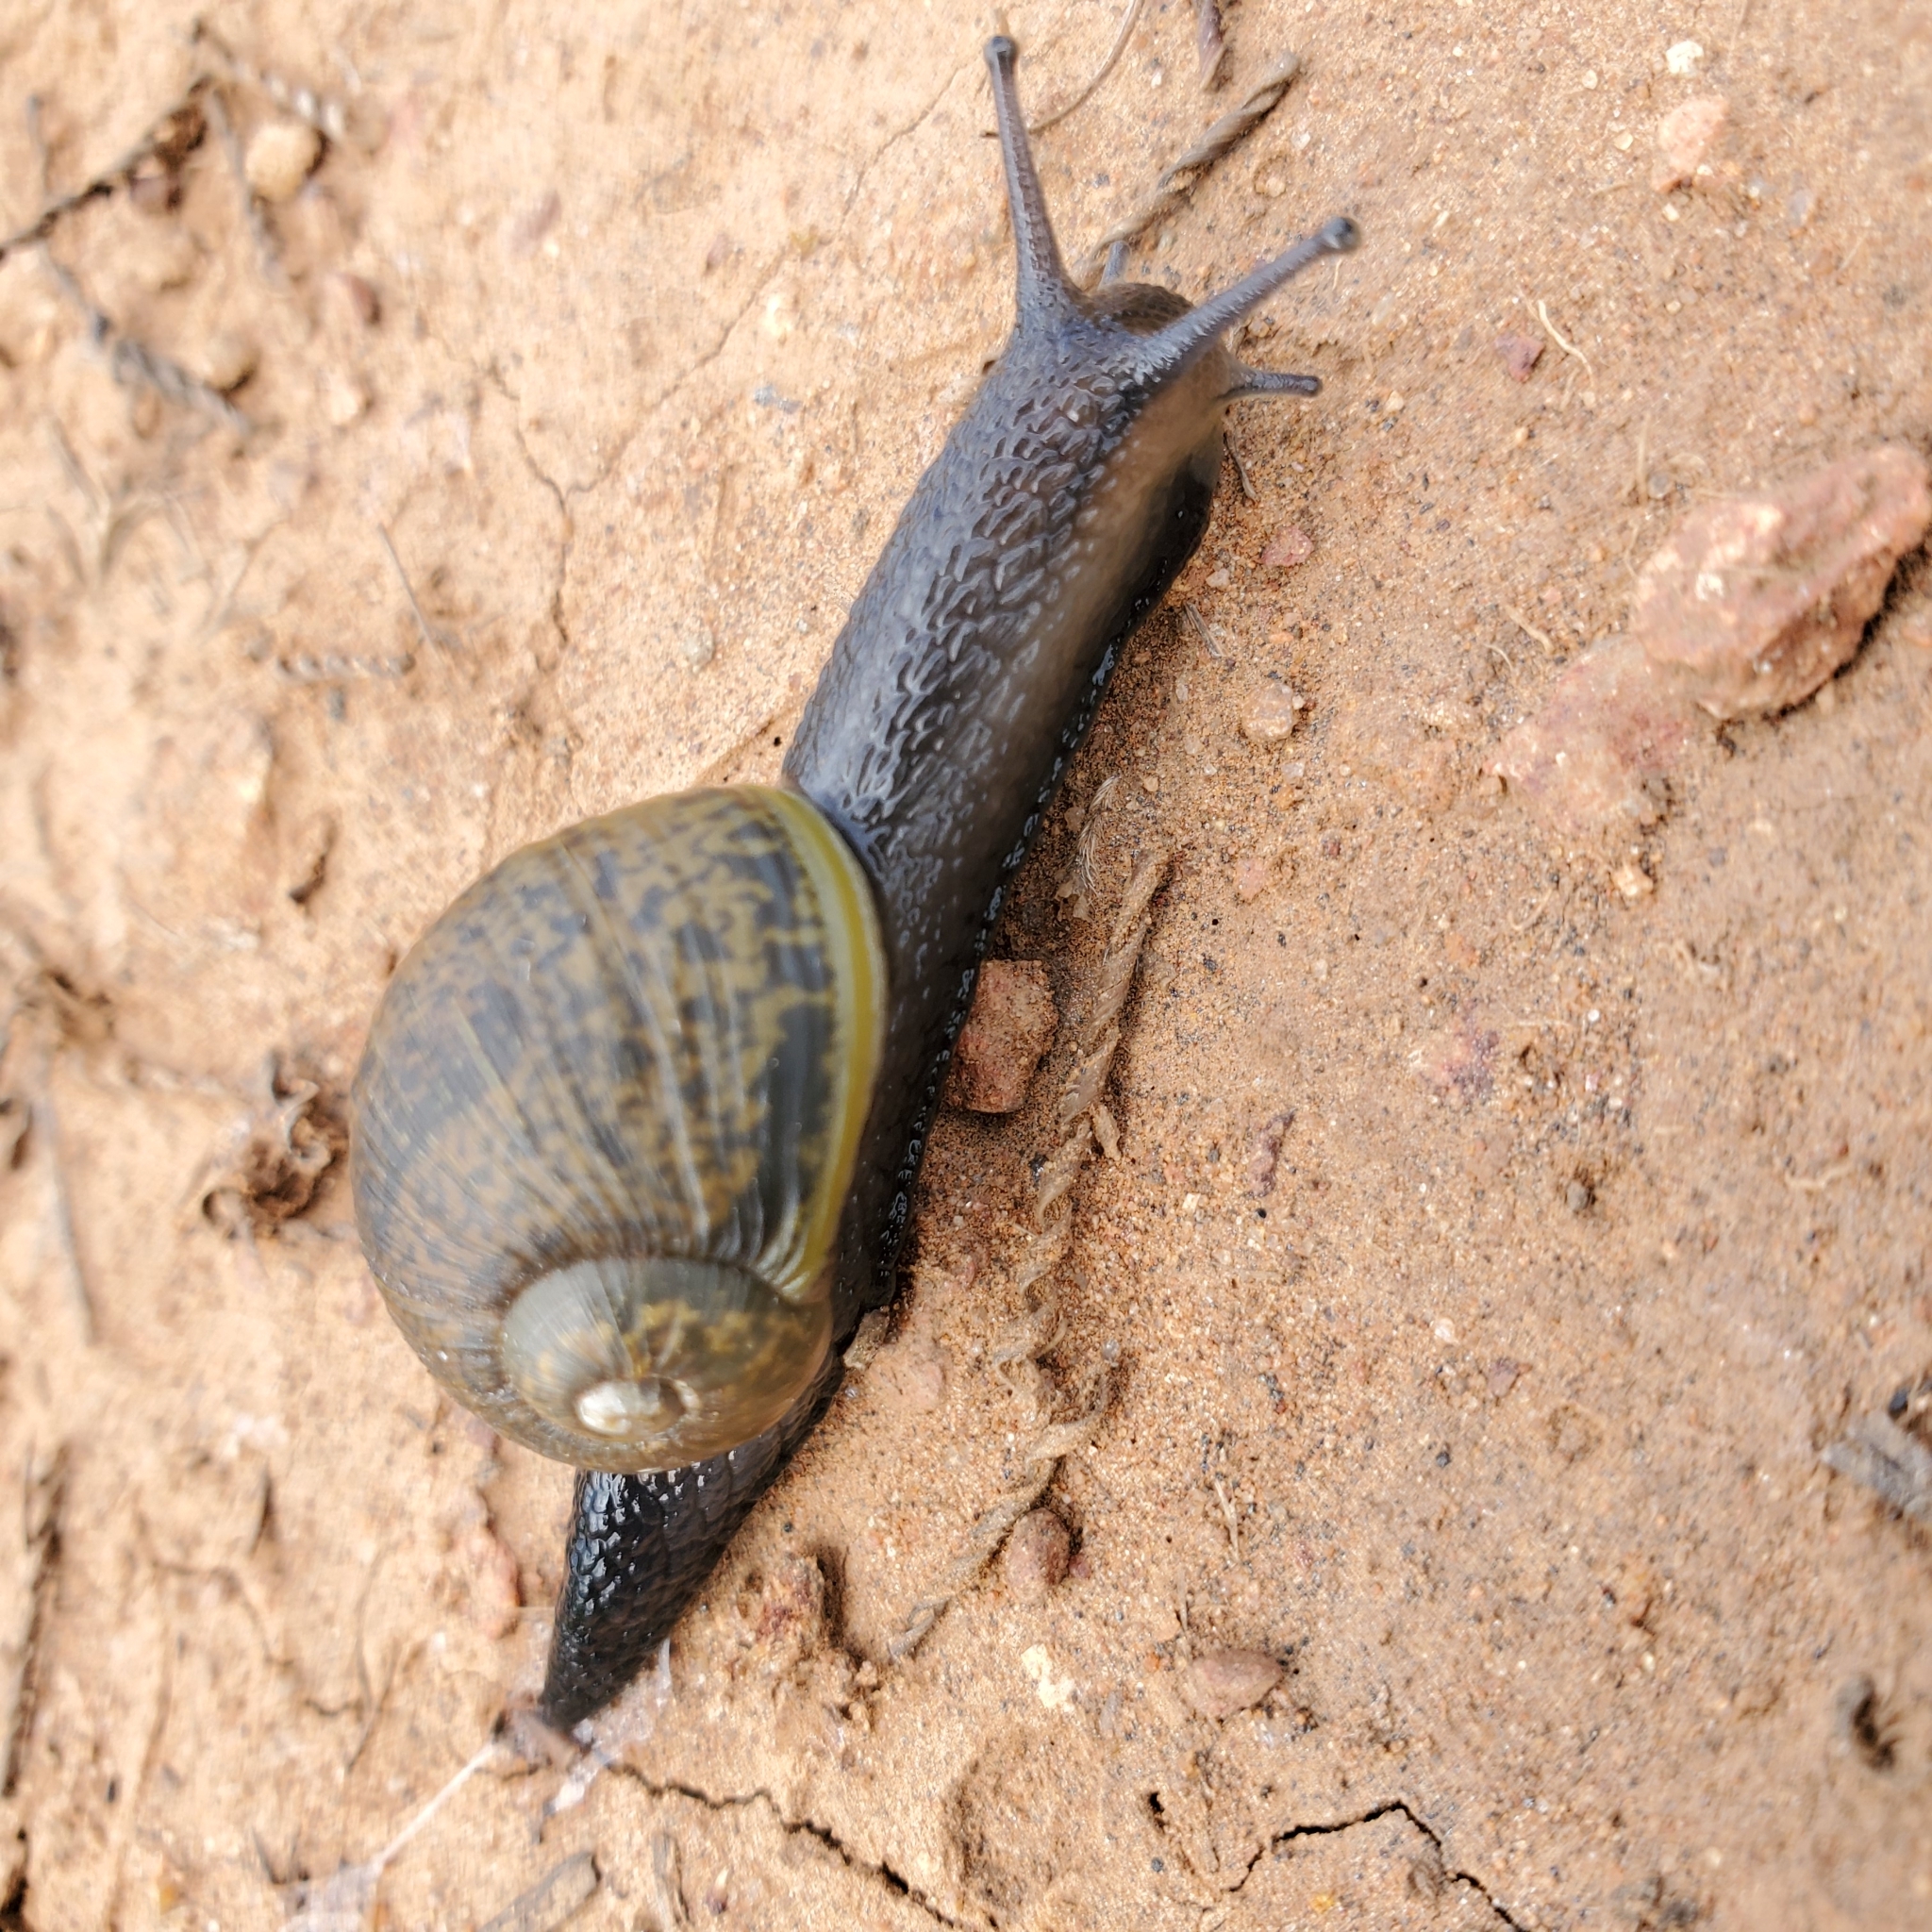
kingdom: Animalia
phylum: Mollusca
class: Gastropoda
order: Stylommatophora
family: Helicidae
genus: Cantareus
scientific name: Cantareus apertus
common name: Green gardensnail
